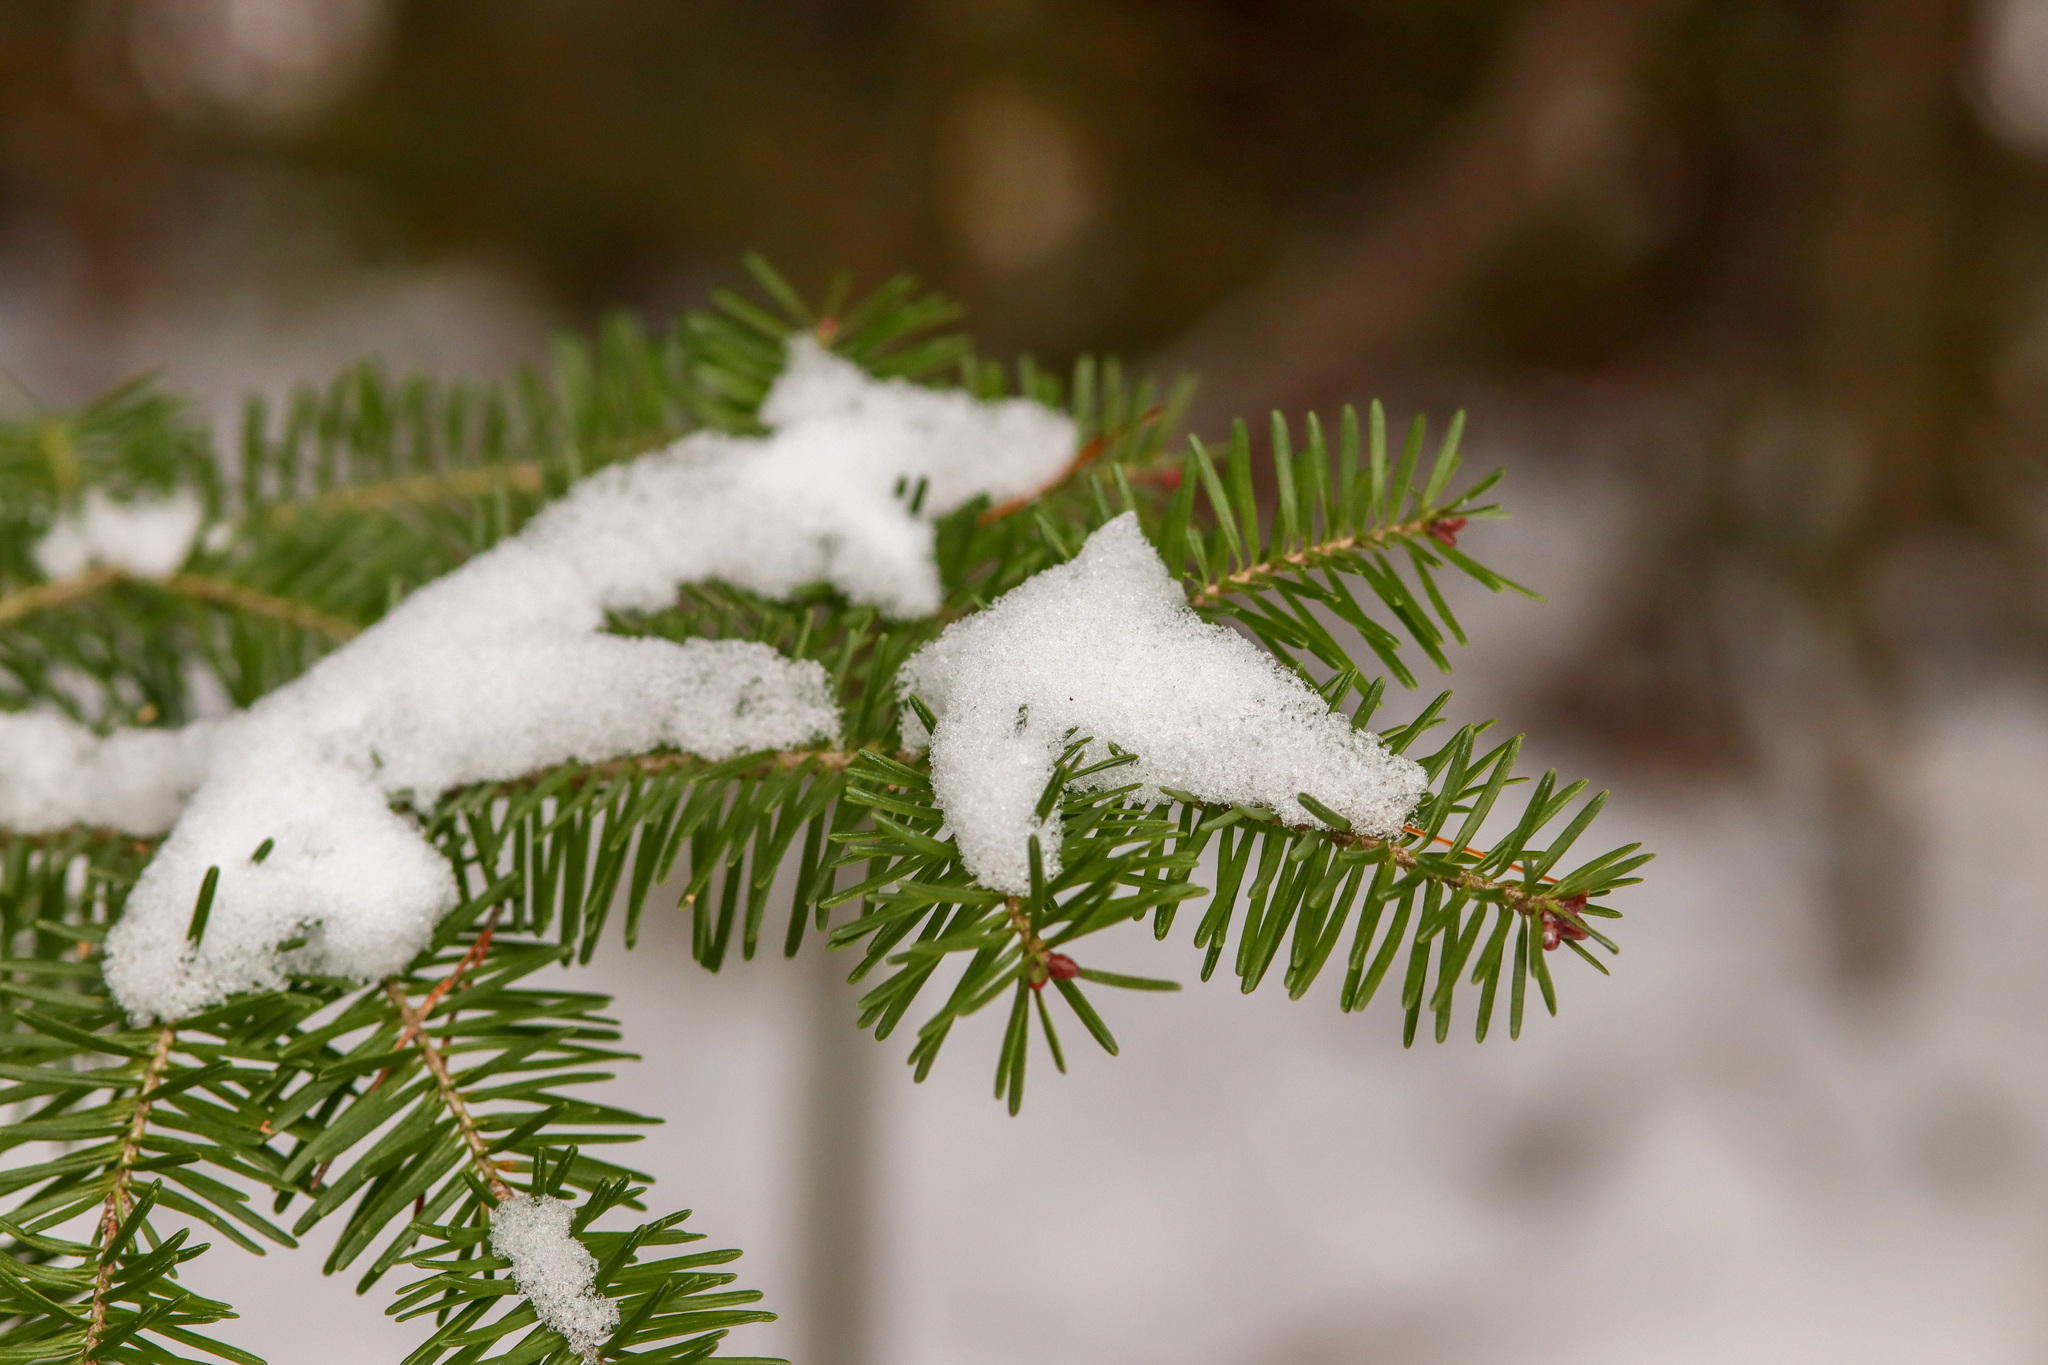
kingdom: Plantae
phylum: Tracheophyta
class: Pinopsida
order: Pinales
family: Pinaceae
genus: Abies
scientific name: Abies balsamea
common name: Balsam fir
